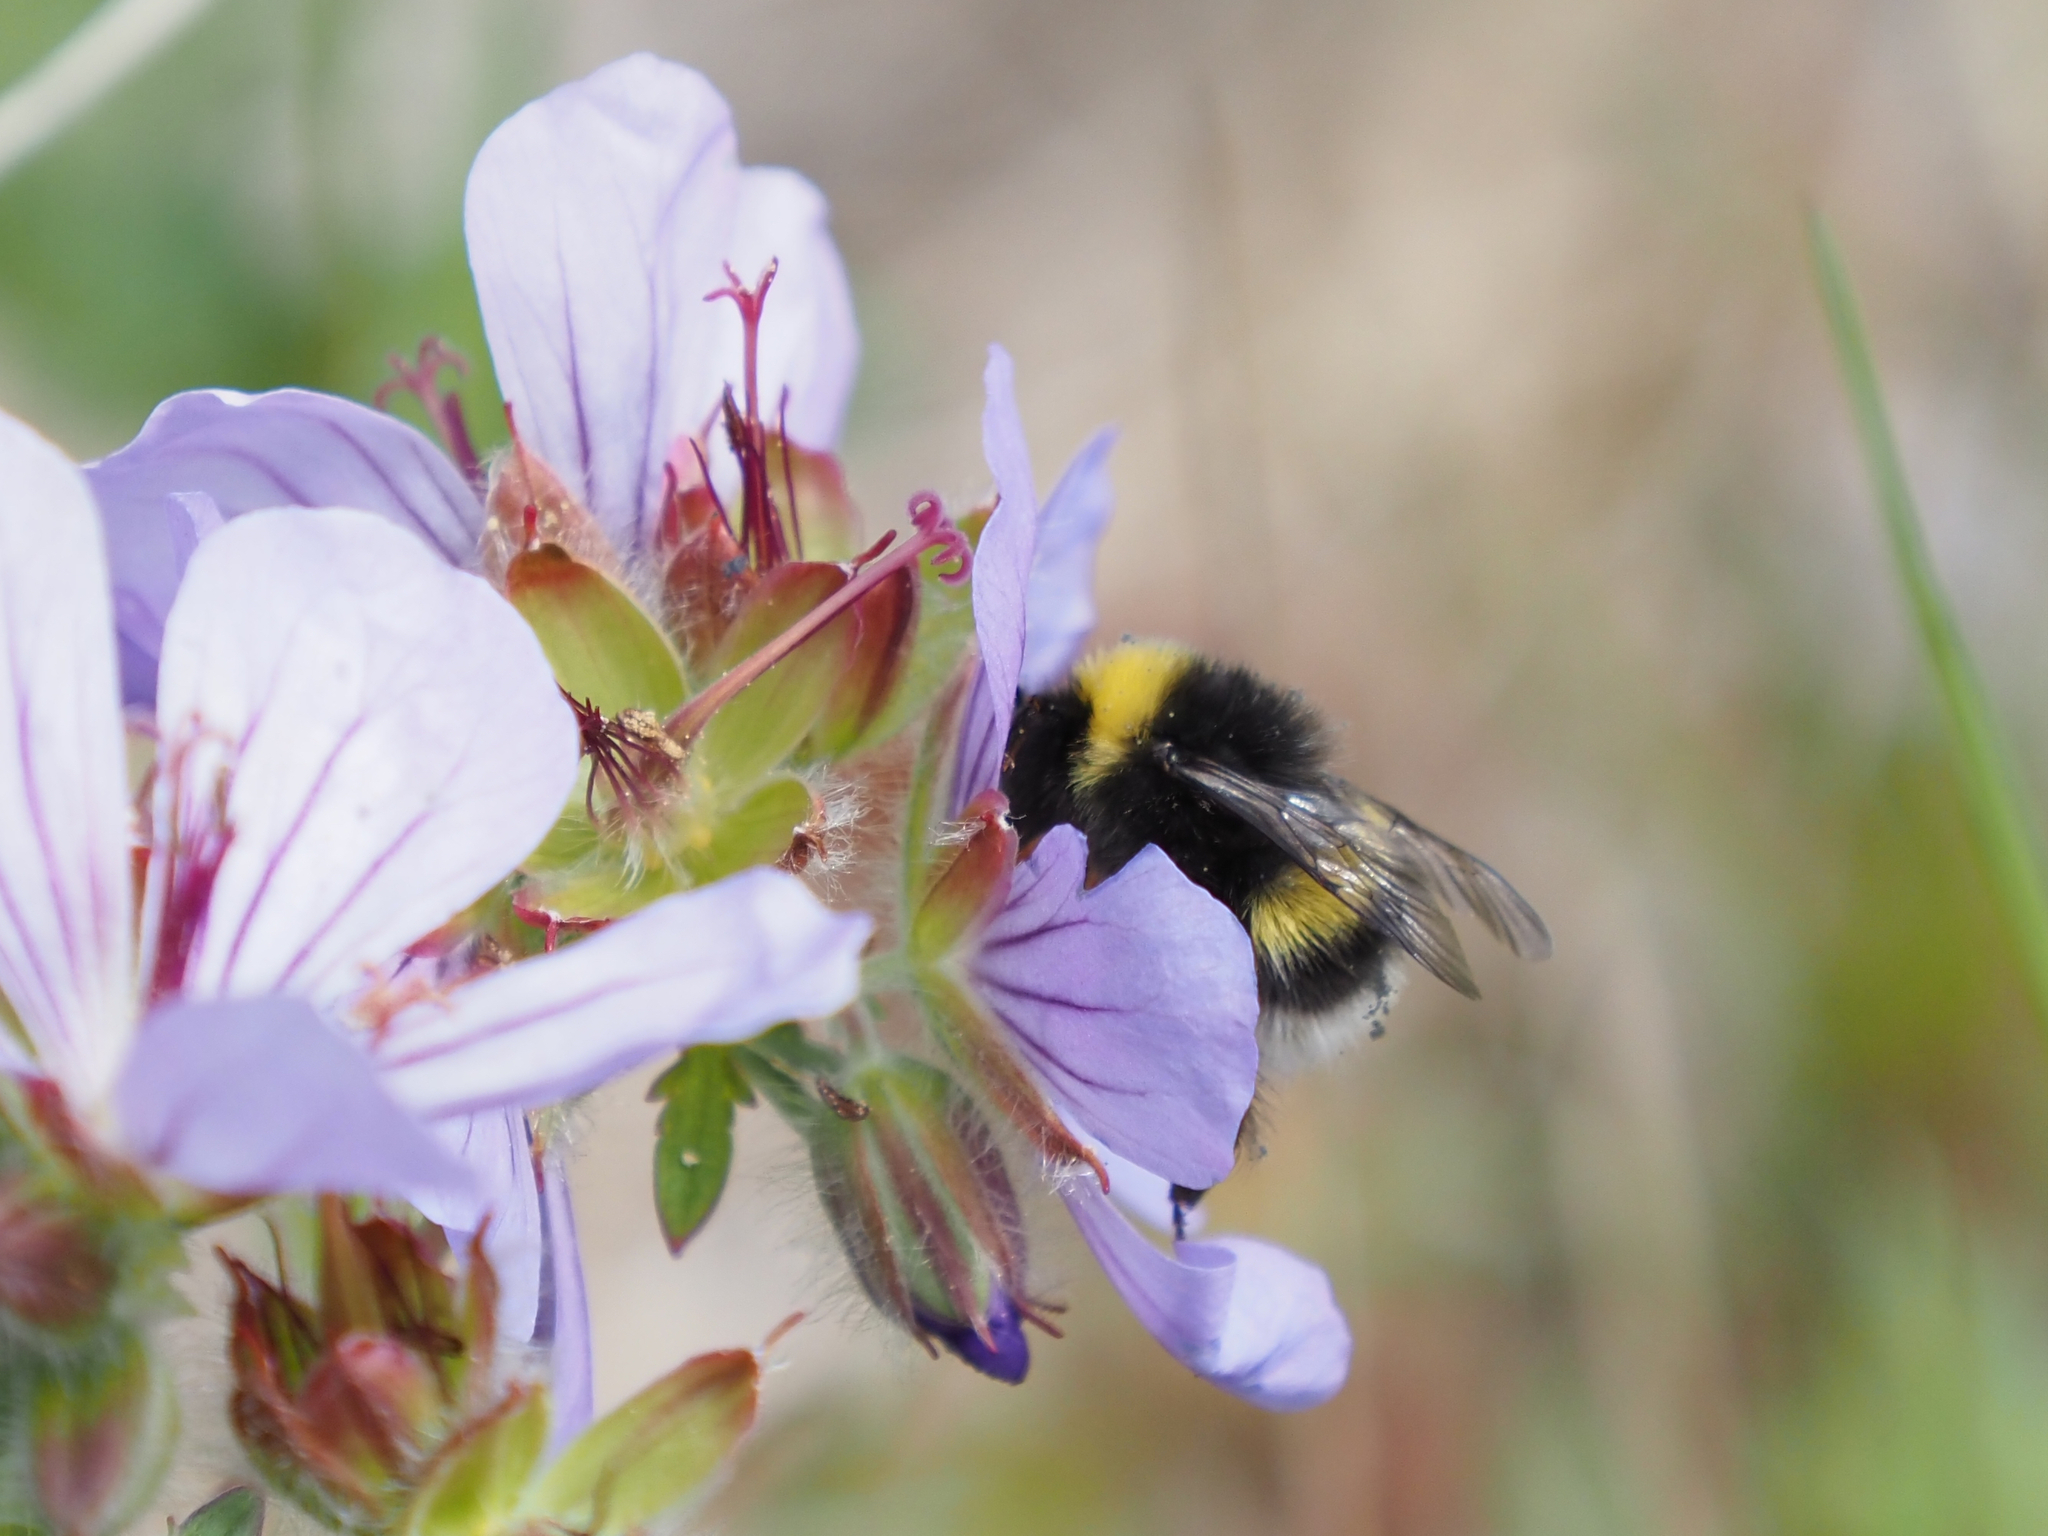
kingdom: Animalia
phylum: Arthropoda
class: Insecta
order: Hymenoptera
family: Apidae
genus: Bombus
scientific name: Bombus cryptarum
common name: Cryptic bumblebee
